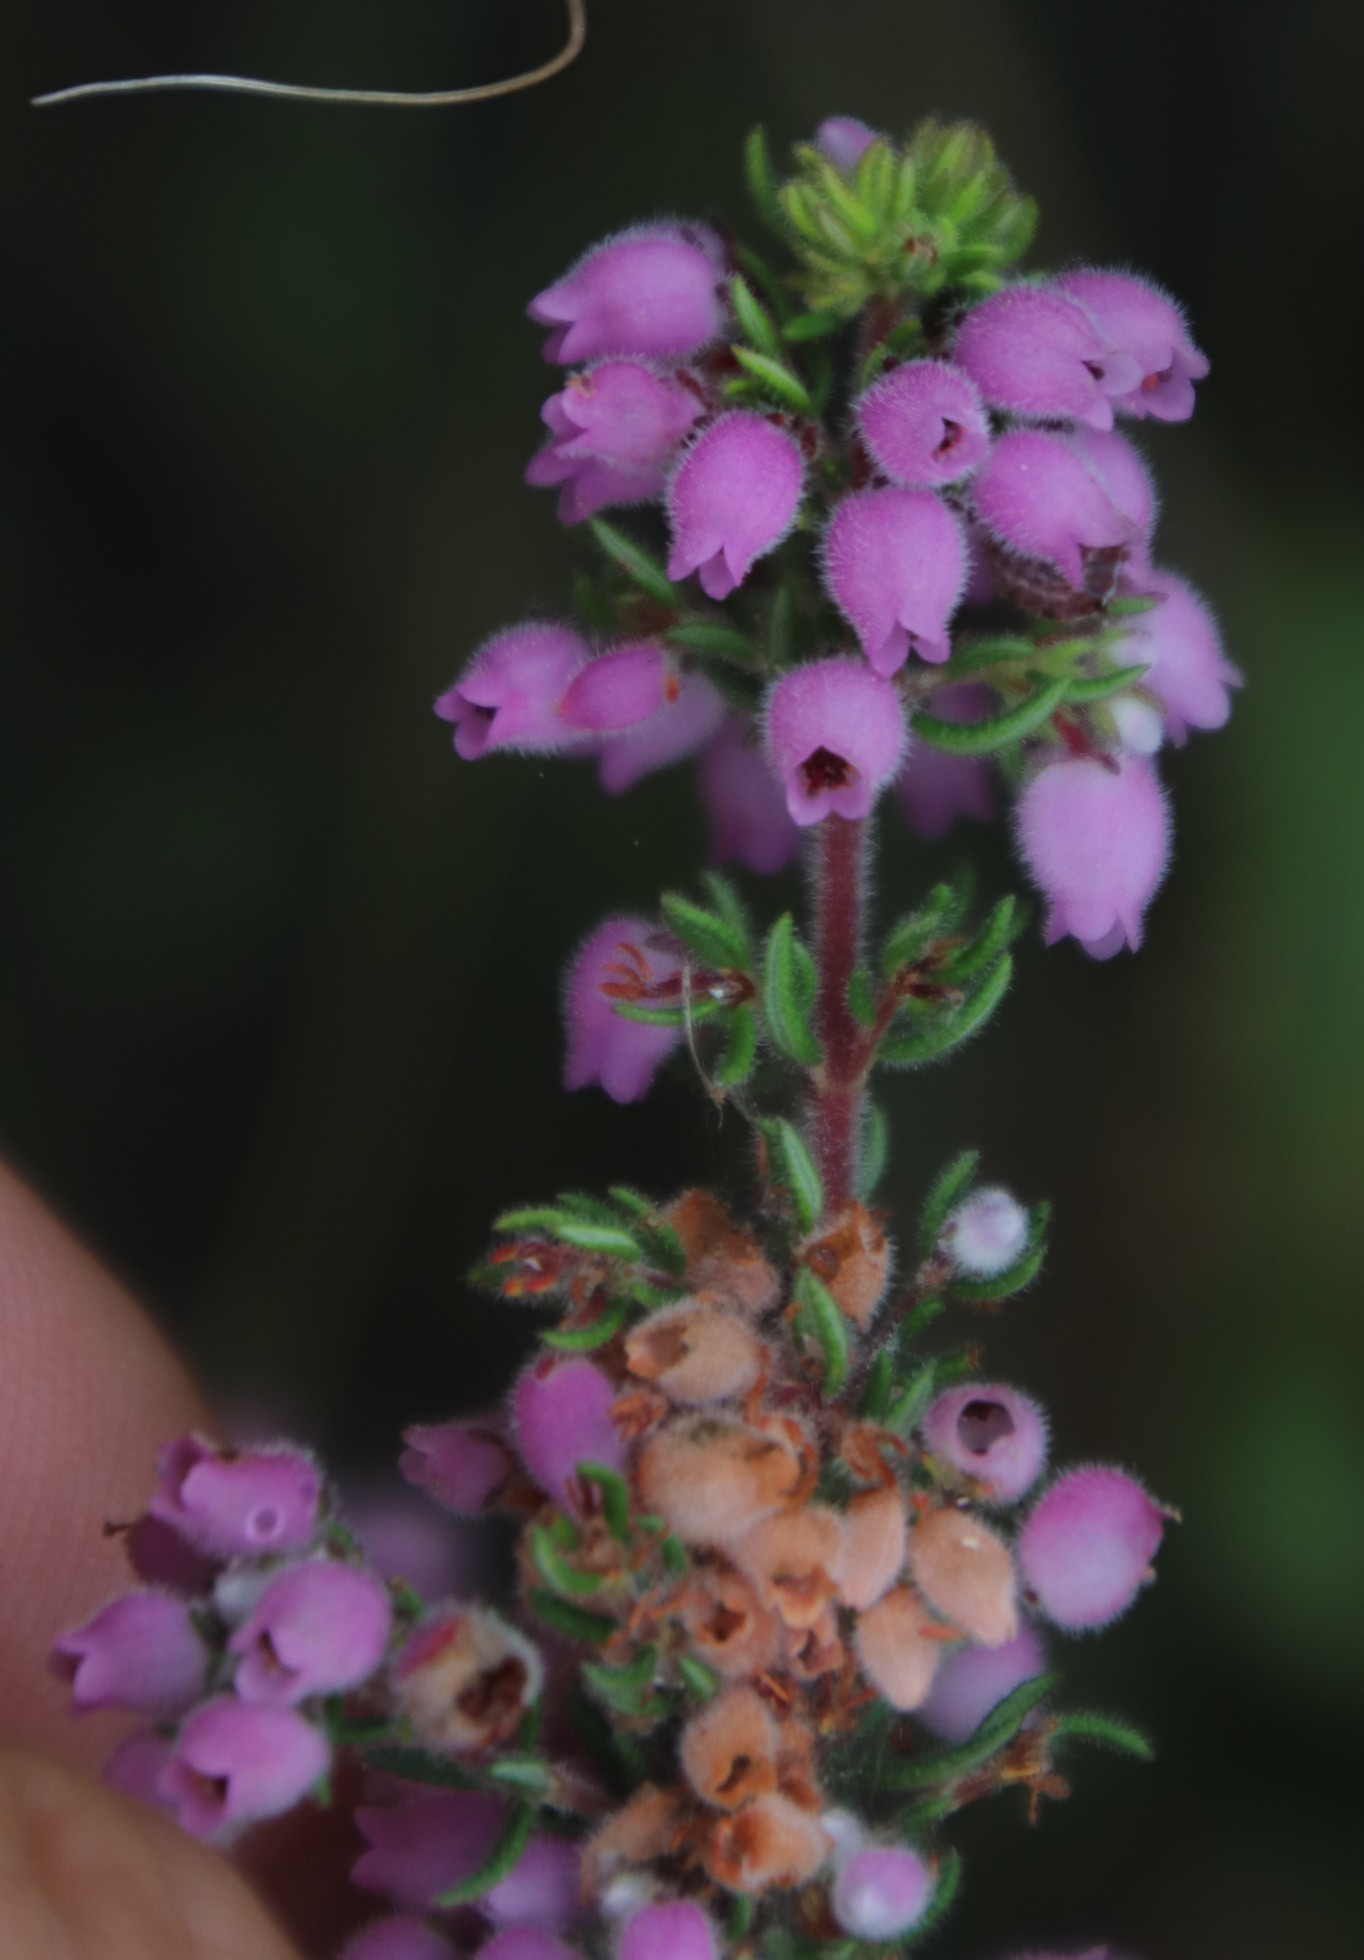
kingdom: Plantae
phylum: Tracheophyta
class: Magnoliopsida
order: Ericales
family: Ericaceae
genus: Erica
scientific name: Erica hirtiflora
